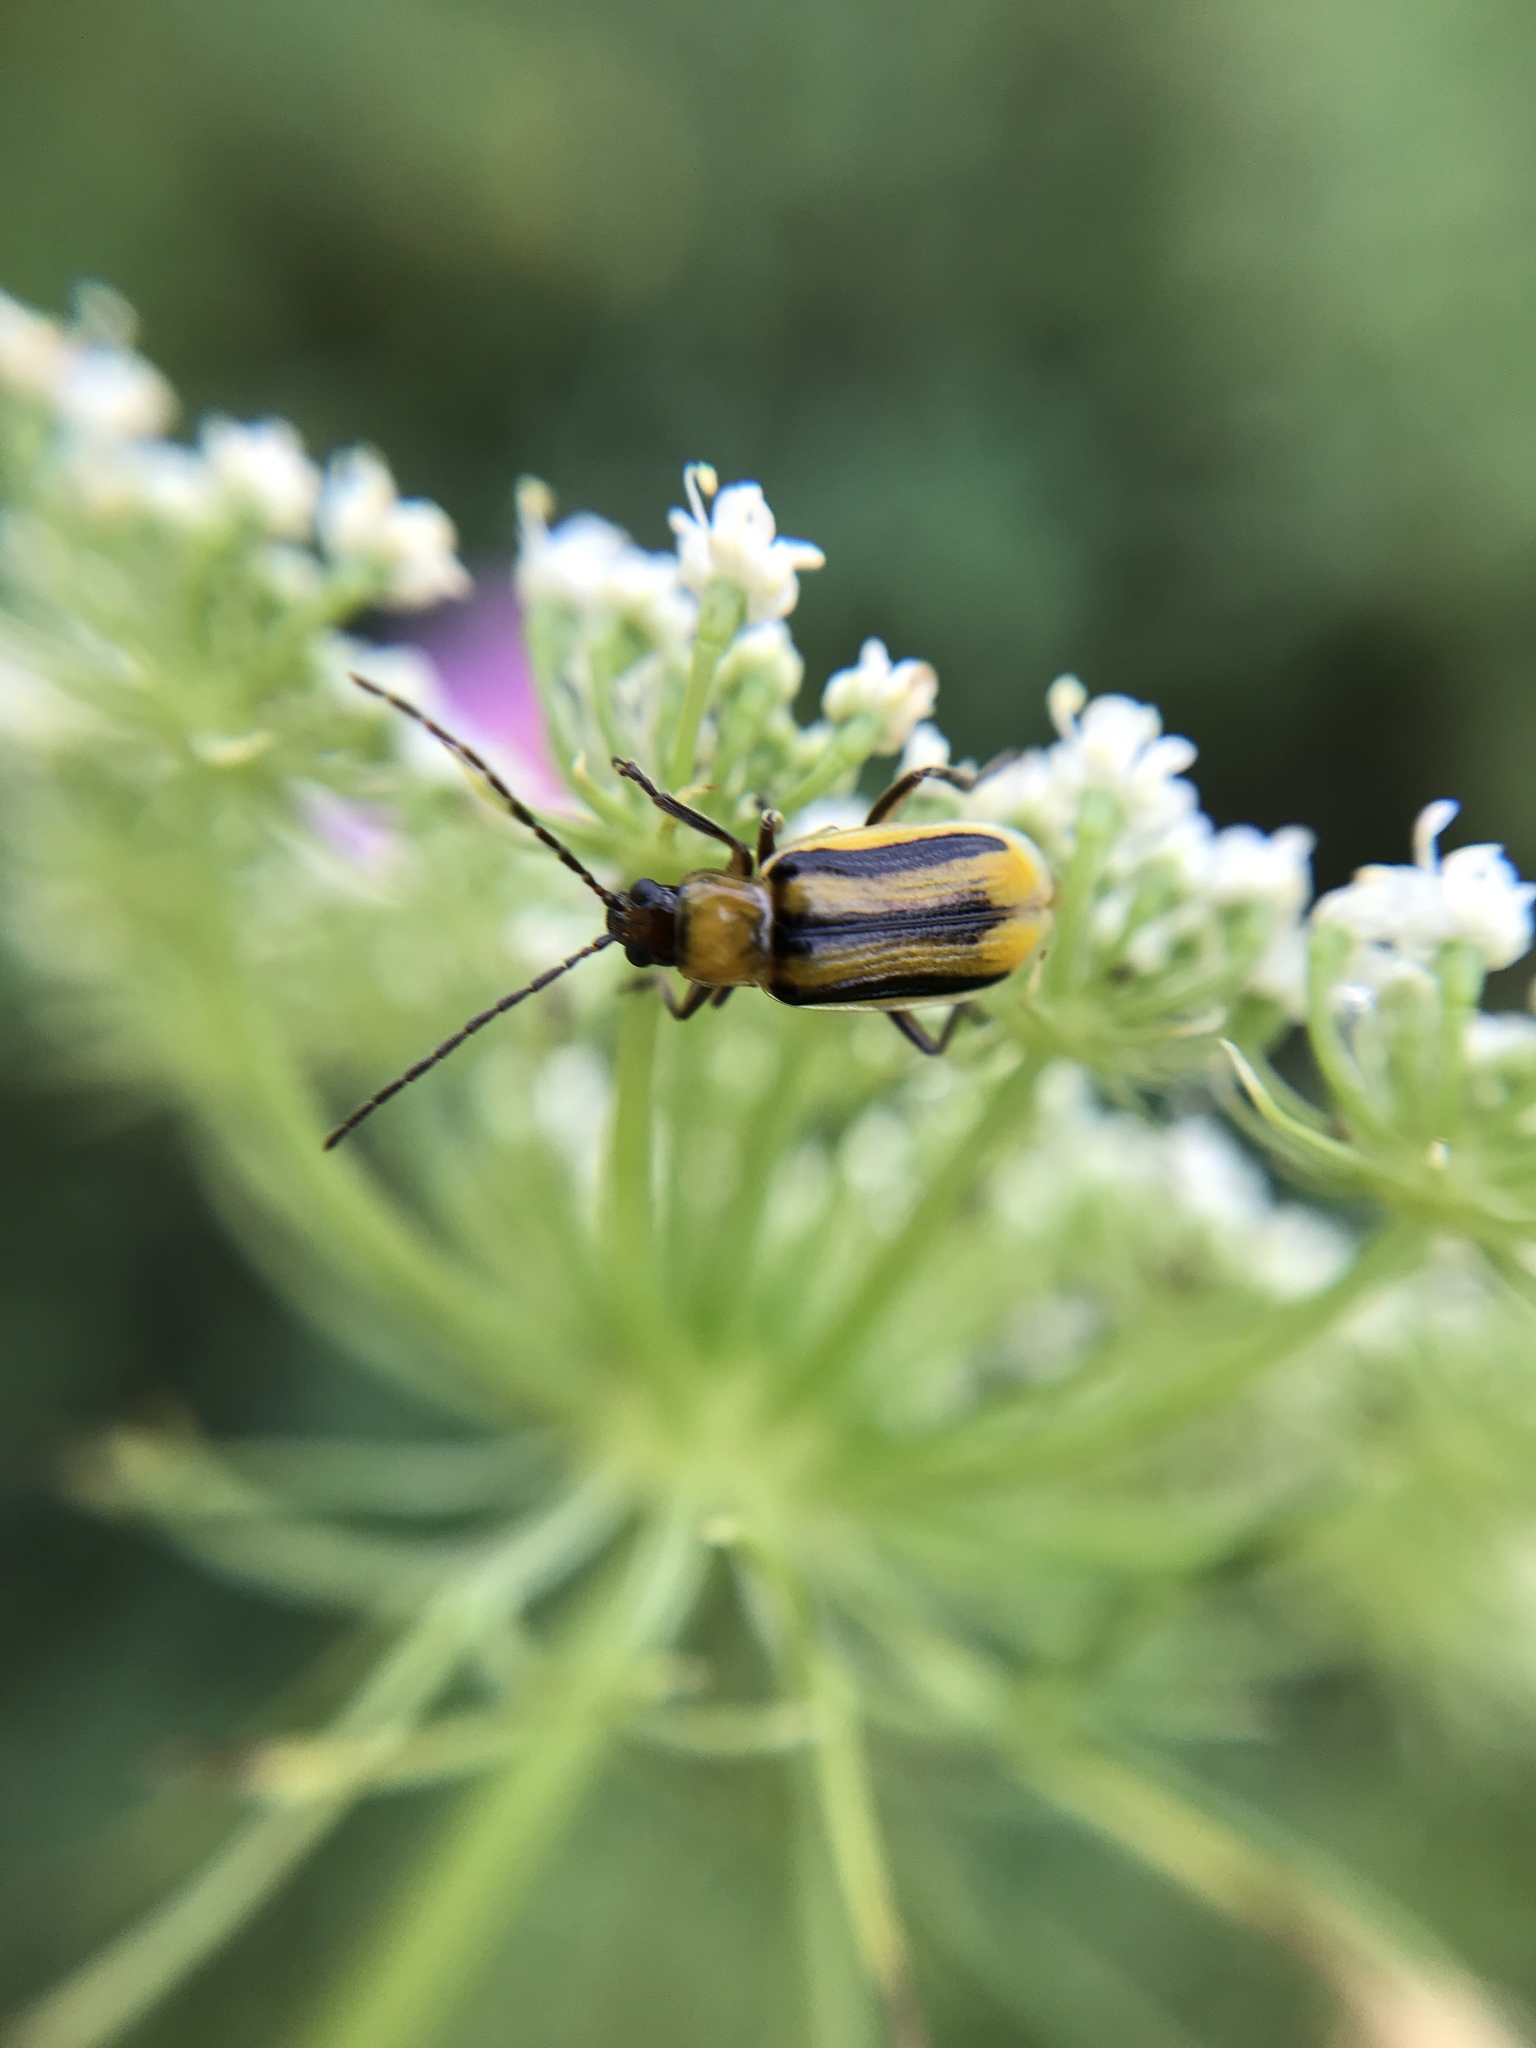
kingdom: Animalia
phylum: Arthropoda
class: Insecta
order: Coleoptera
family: Chrysomelidae
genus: Diabrotica
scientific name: Diabrotica virgifera
